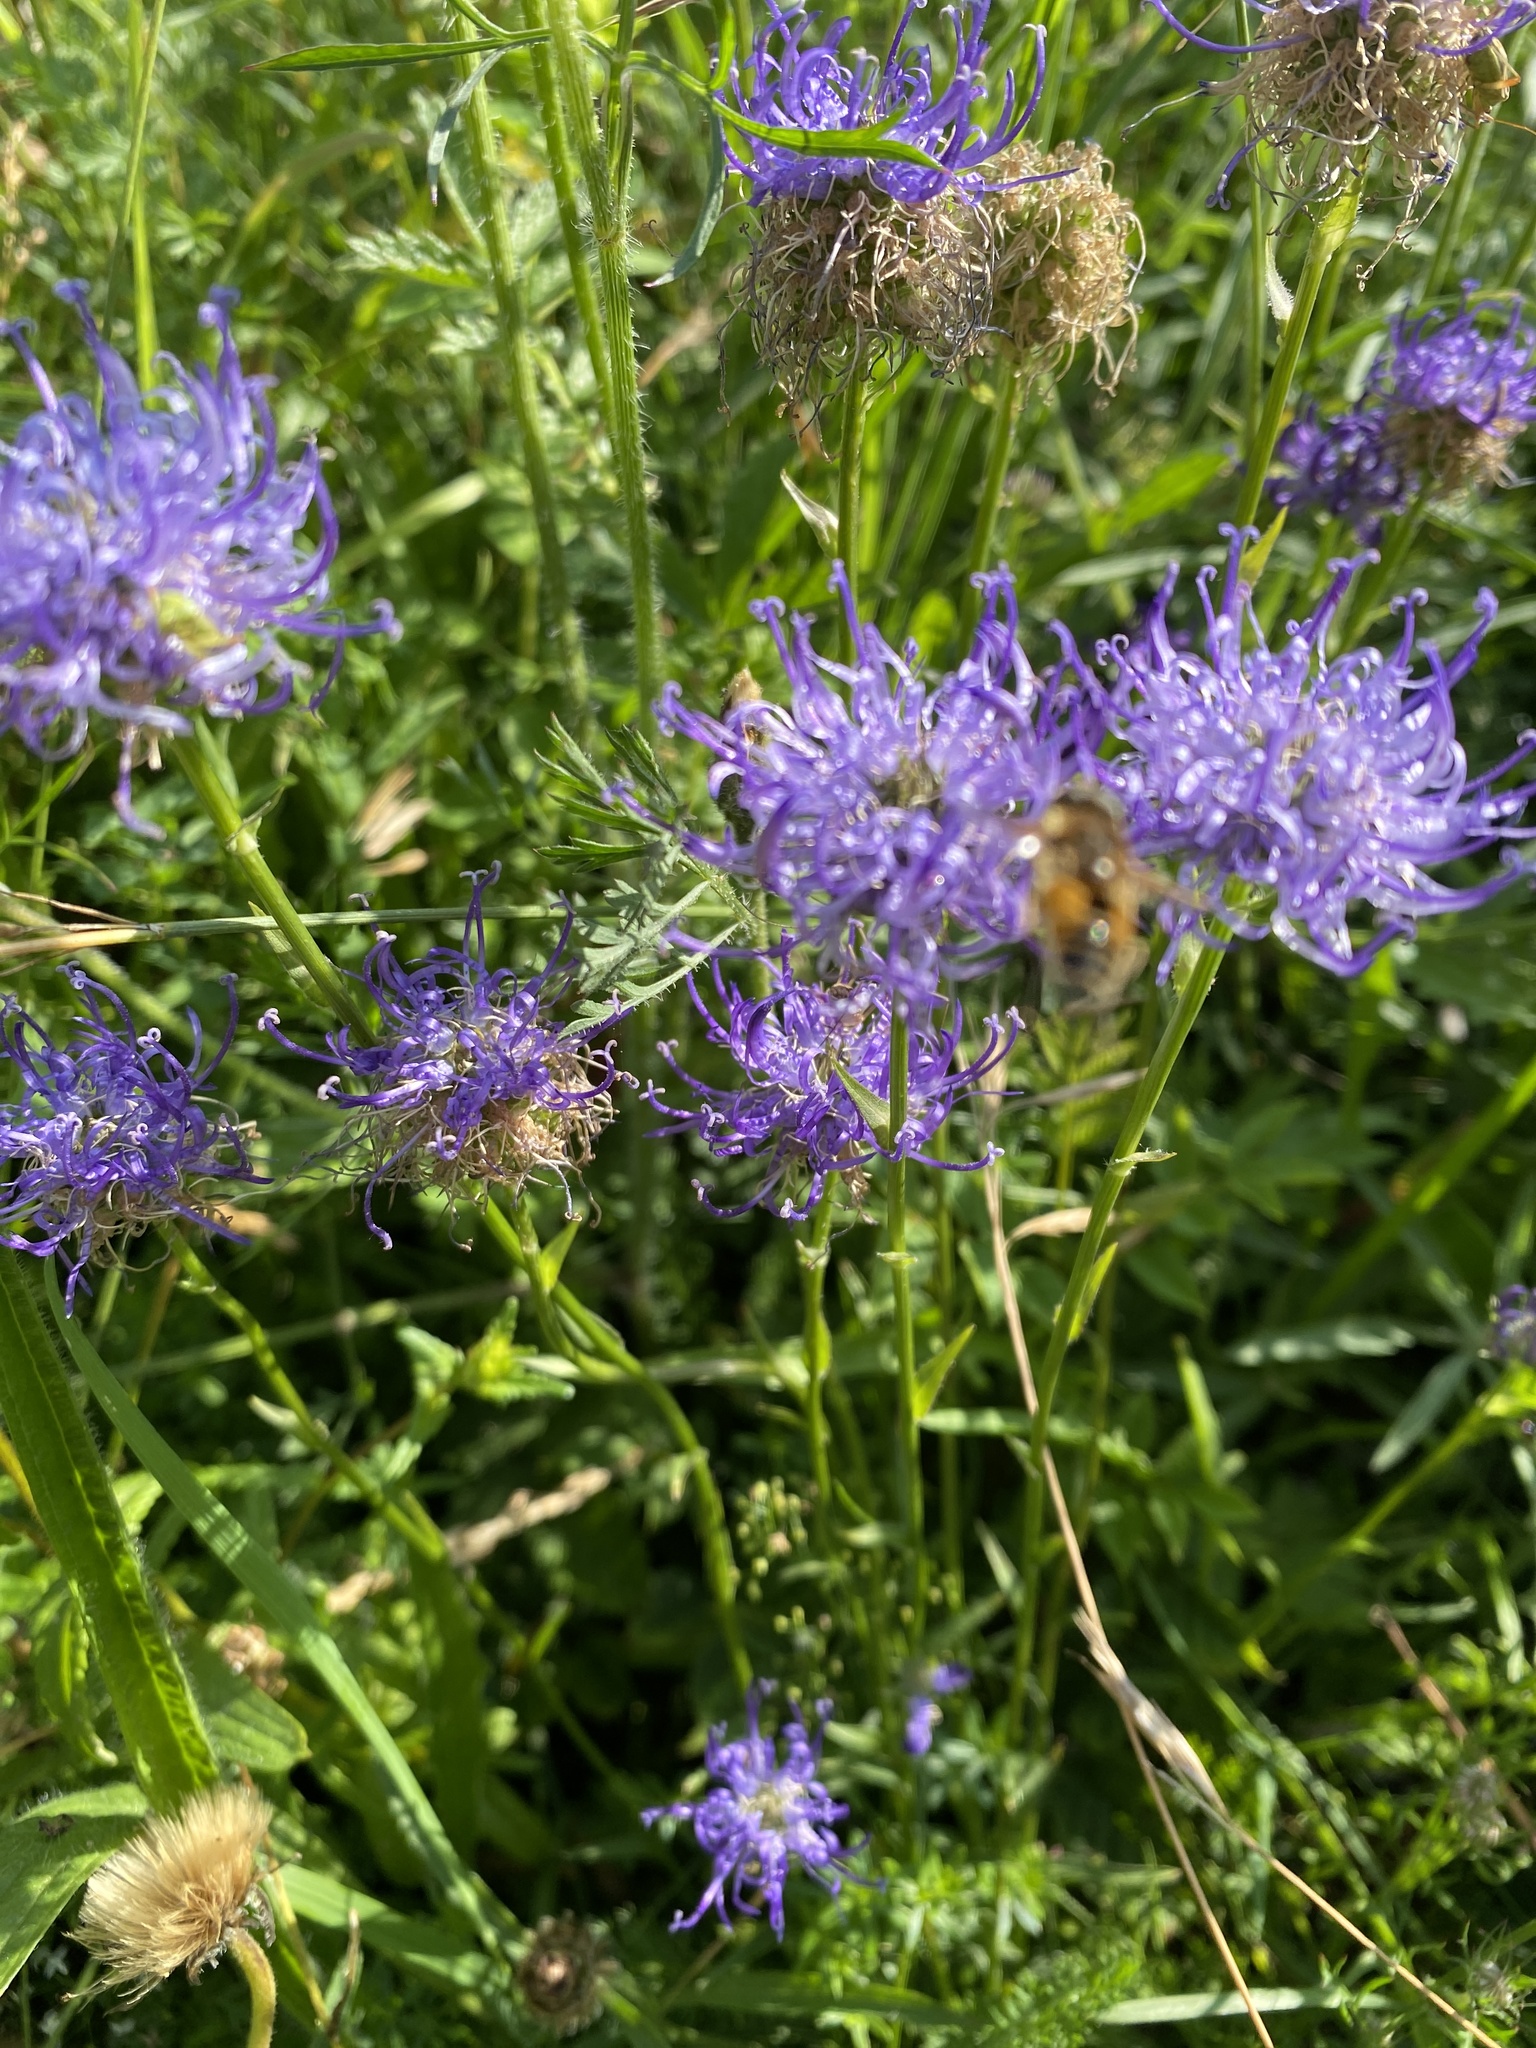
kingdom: Plantae
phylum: Tracheophyta
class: Magnoliopsida
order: Asterales
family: Campanulaceae
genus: Jasione
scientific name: Jasione montana
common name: Sheep's-bit
